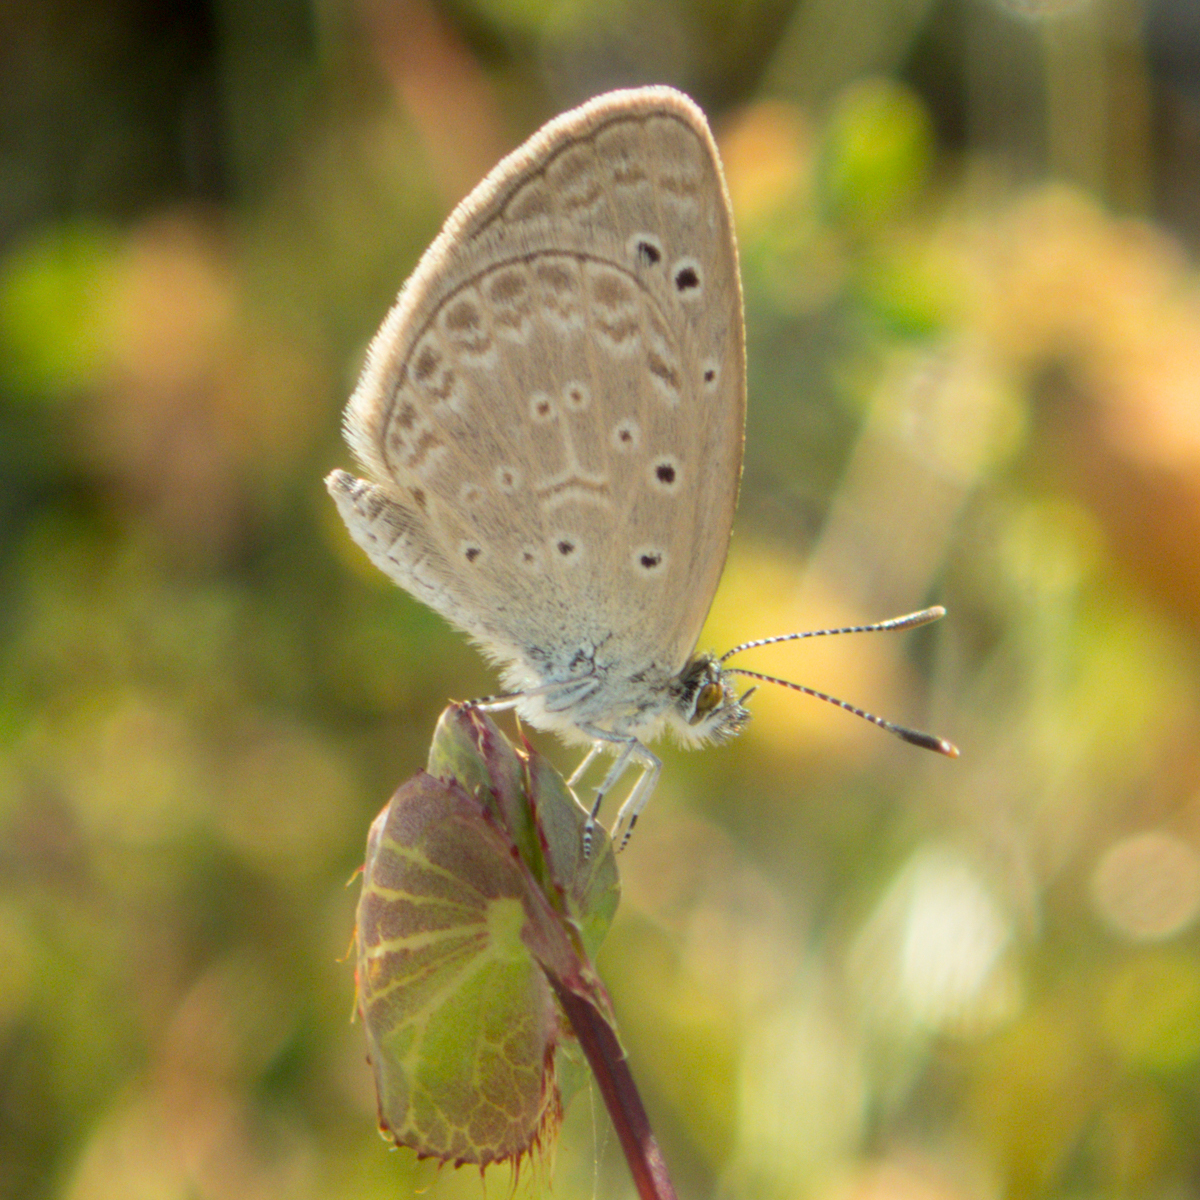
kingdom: Animalia
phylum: Arthropoda
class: Insecta
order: Lepidoptera
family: Lycaenidae
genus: Zizeeria
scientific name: Zizeeria karsandra
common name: Dark grass blue
